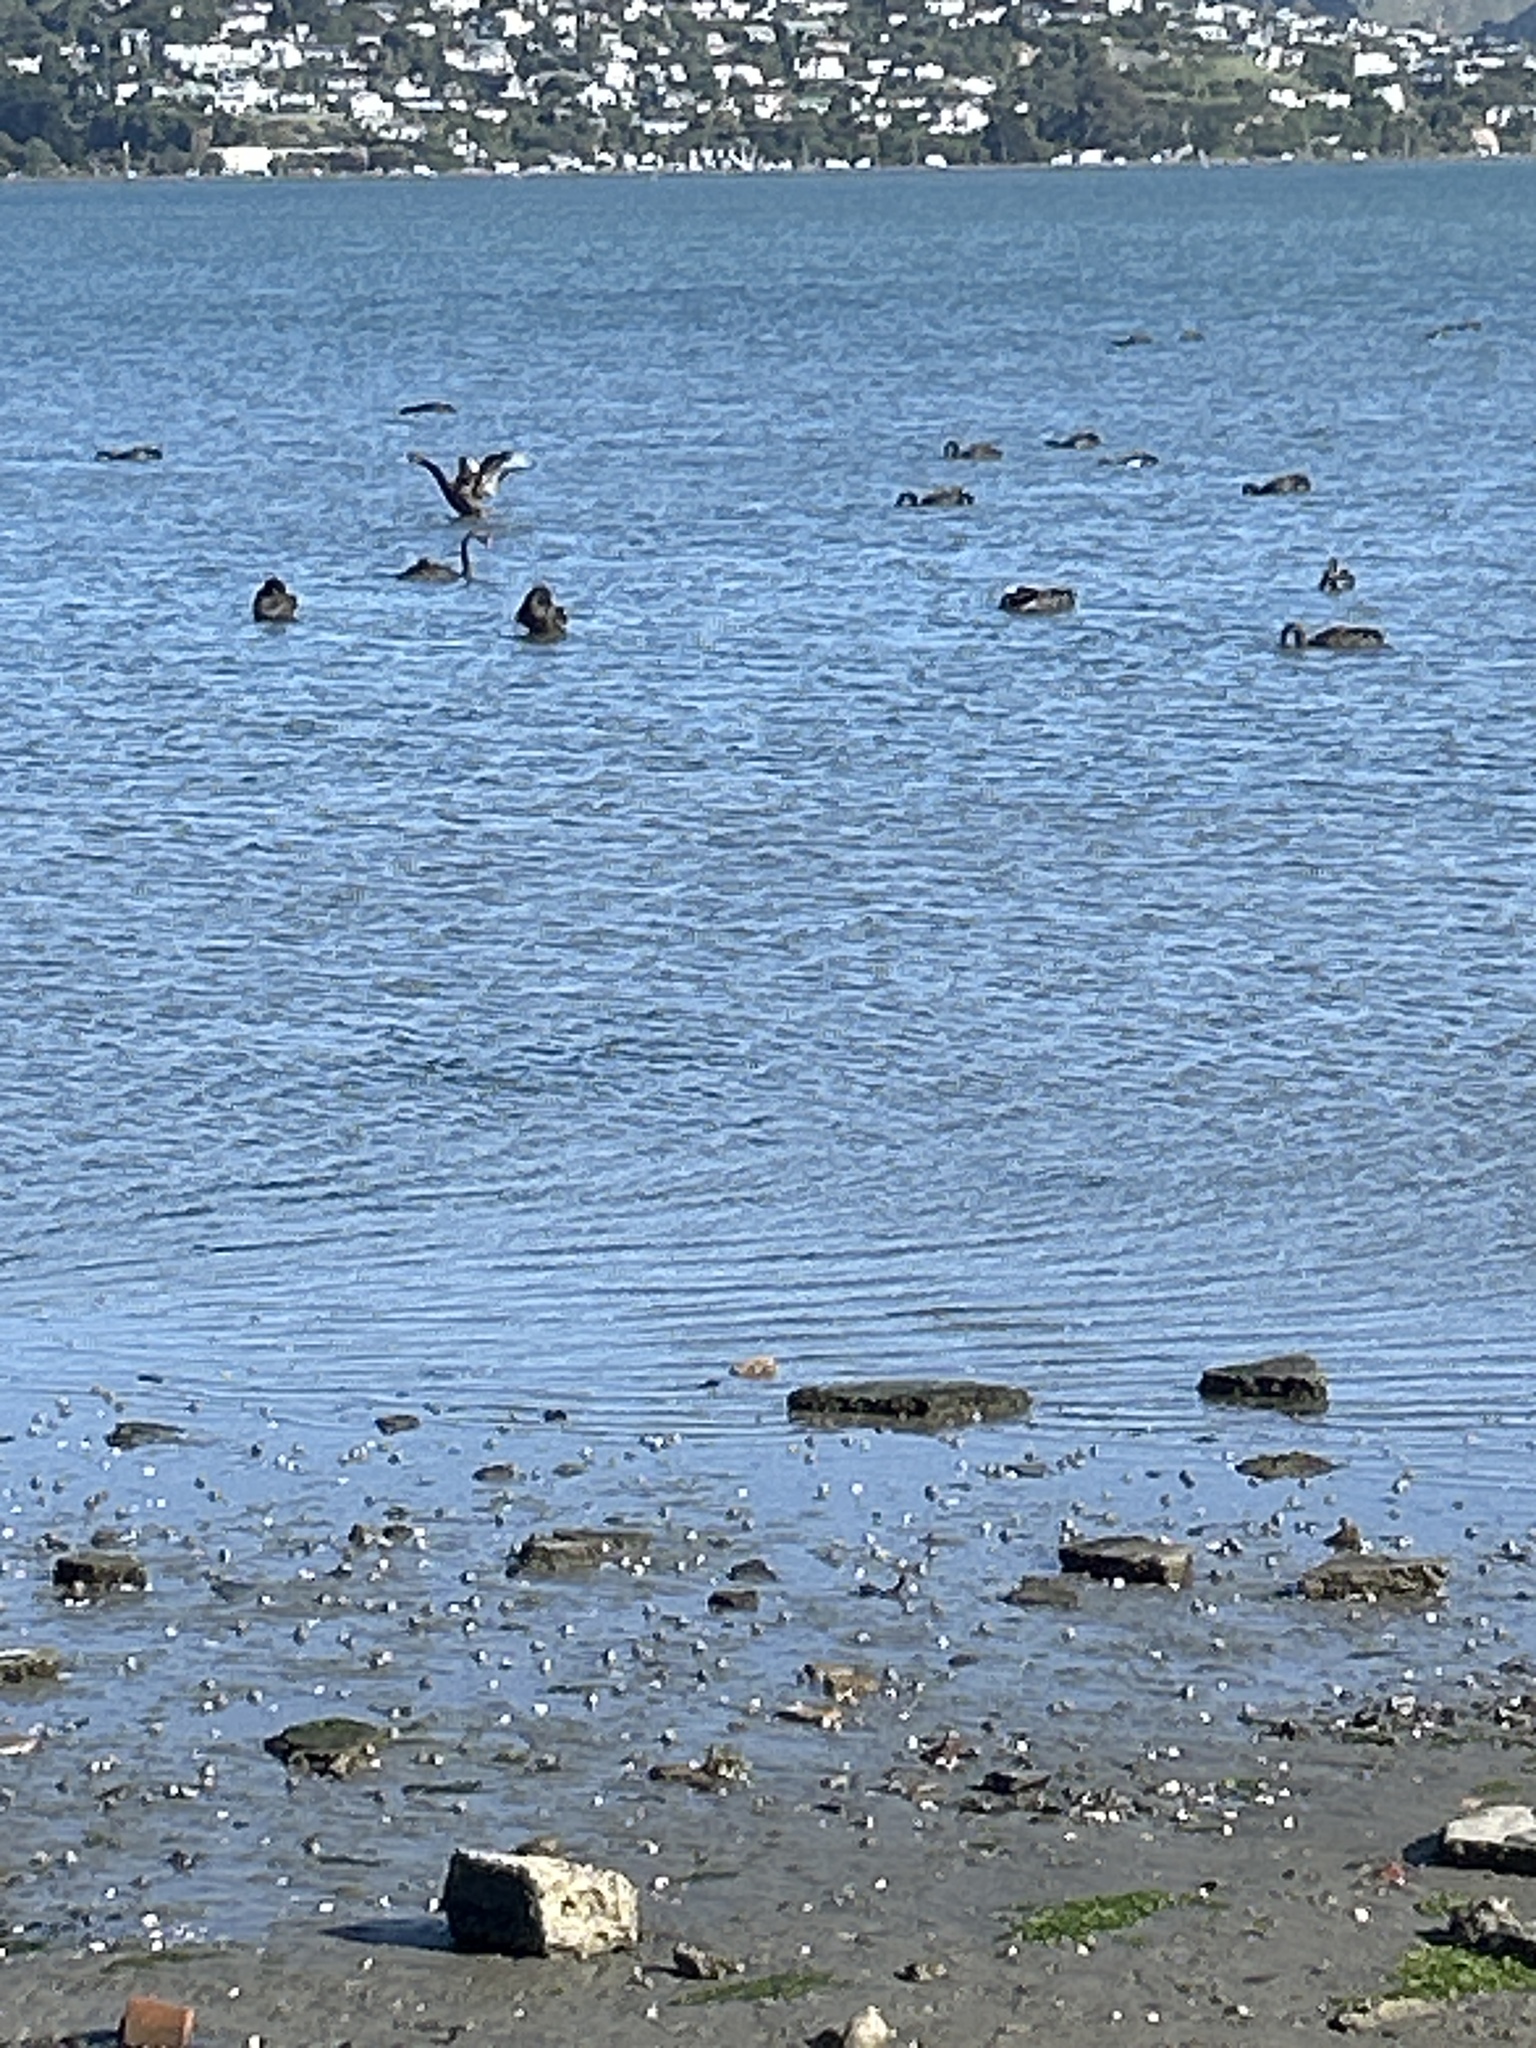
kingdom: Animalia
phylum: Chordata
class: Aves
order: Anseriformes
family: Anatidae
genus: Cygnus
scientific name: Cygnus atratus
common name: Black swan
